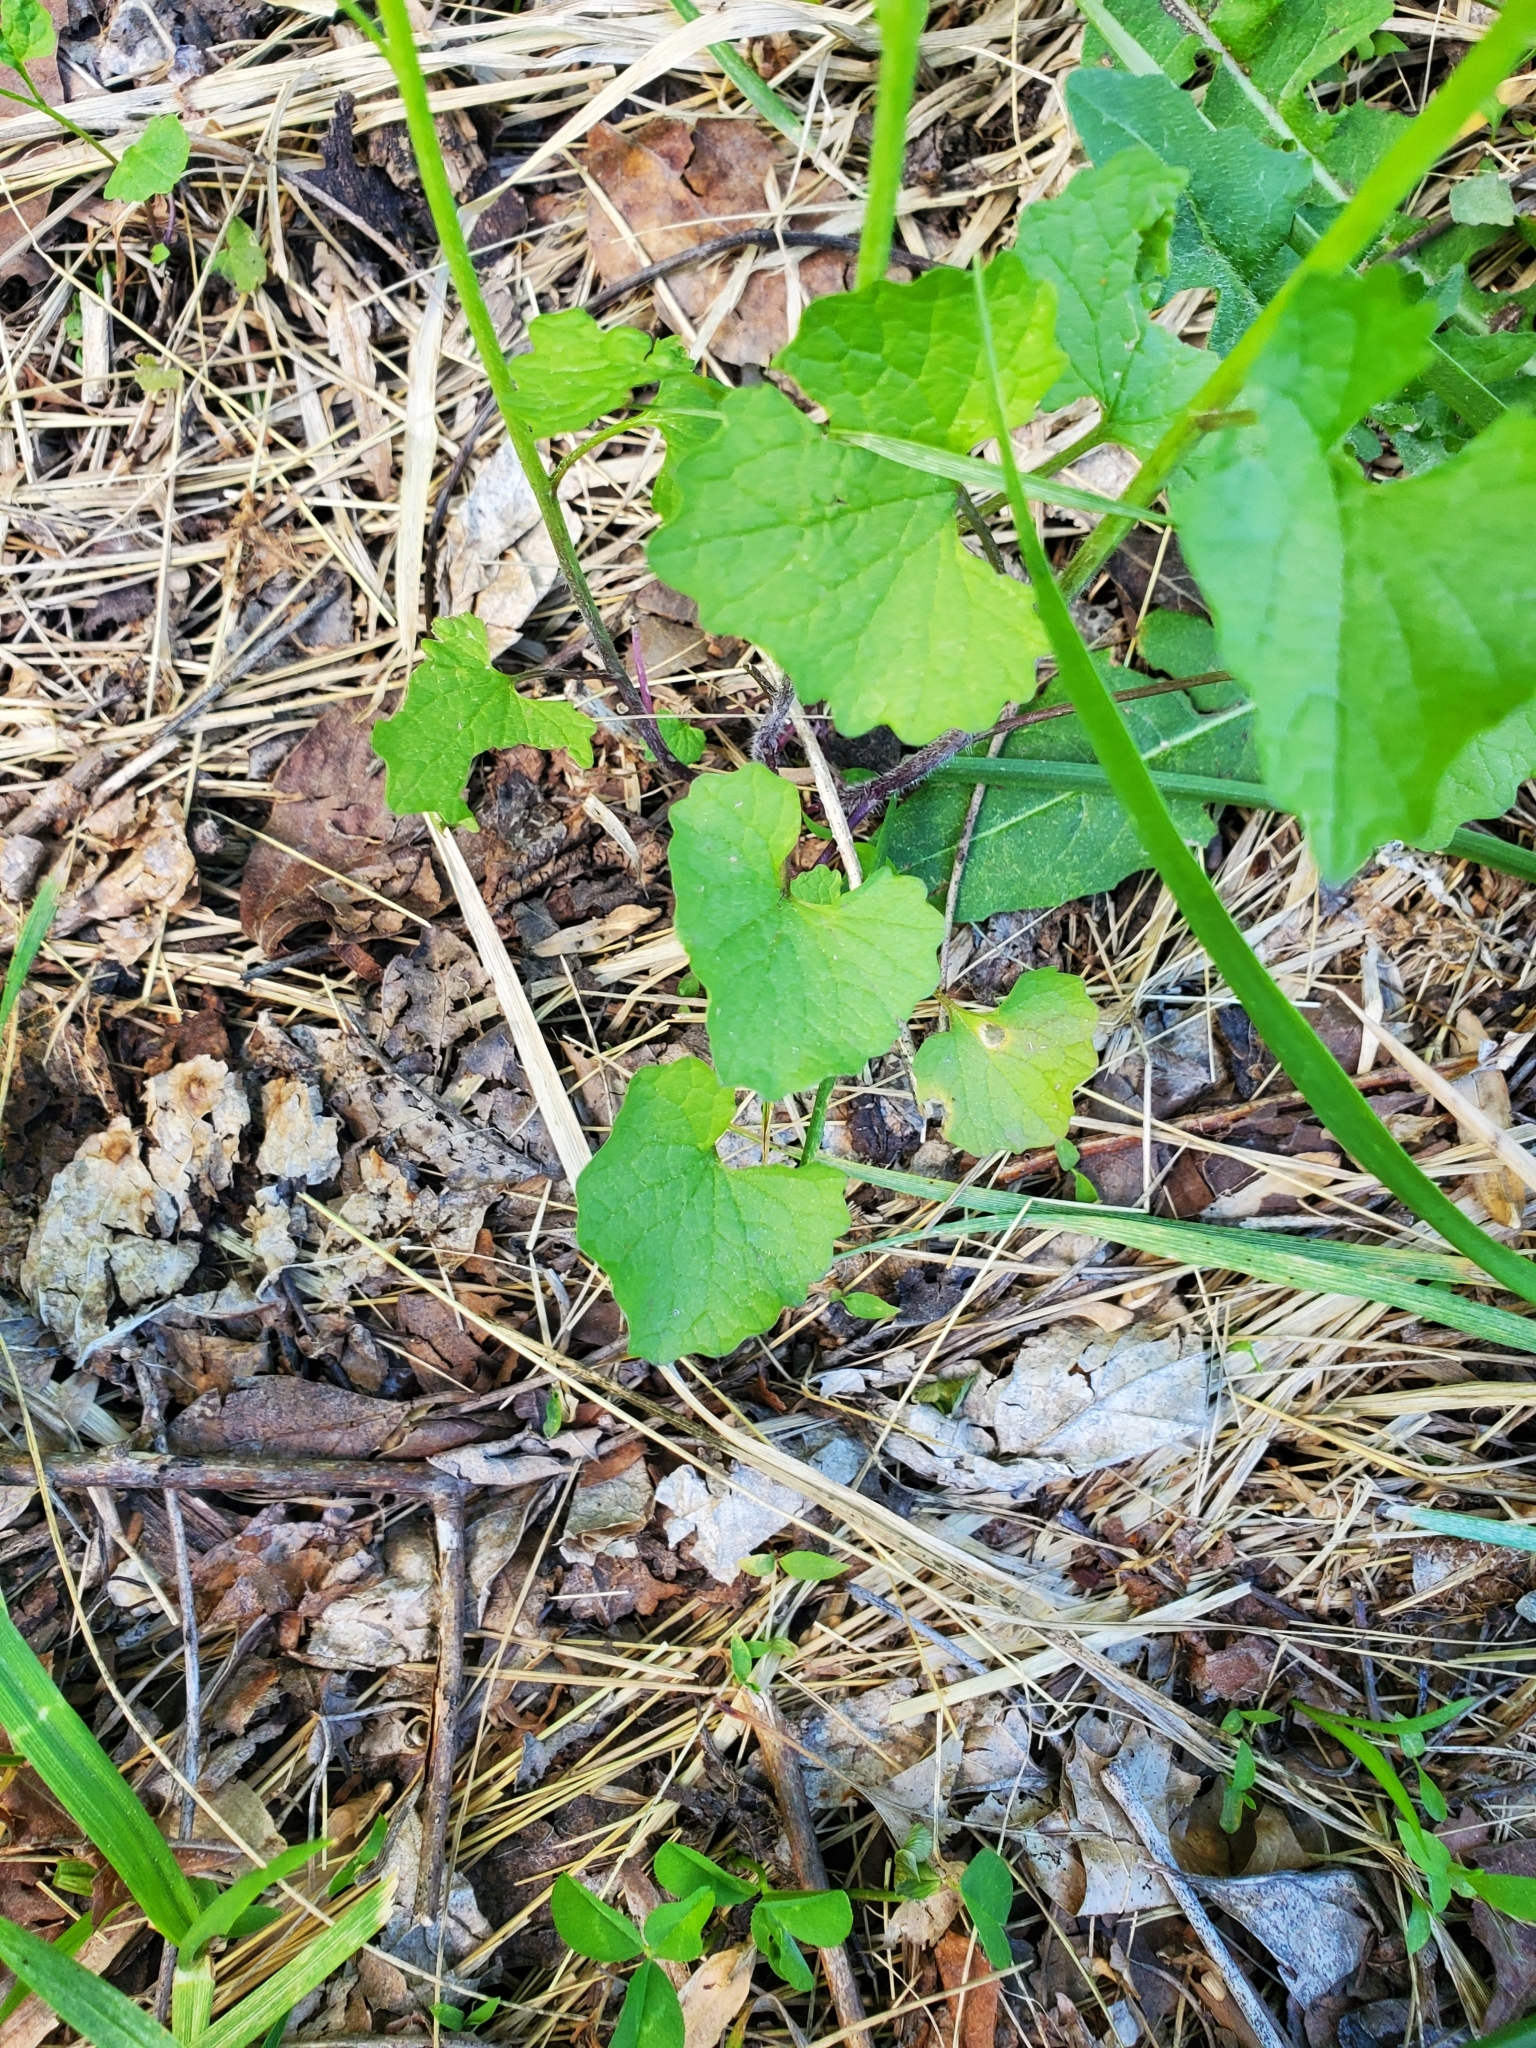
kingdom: Plantae
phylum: Tracheophyta
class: Magnoliopsida
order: Brassicales
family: Brassicaceae
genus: Alliaria
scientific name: Alliaria petiolata
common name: Garlic mustard
